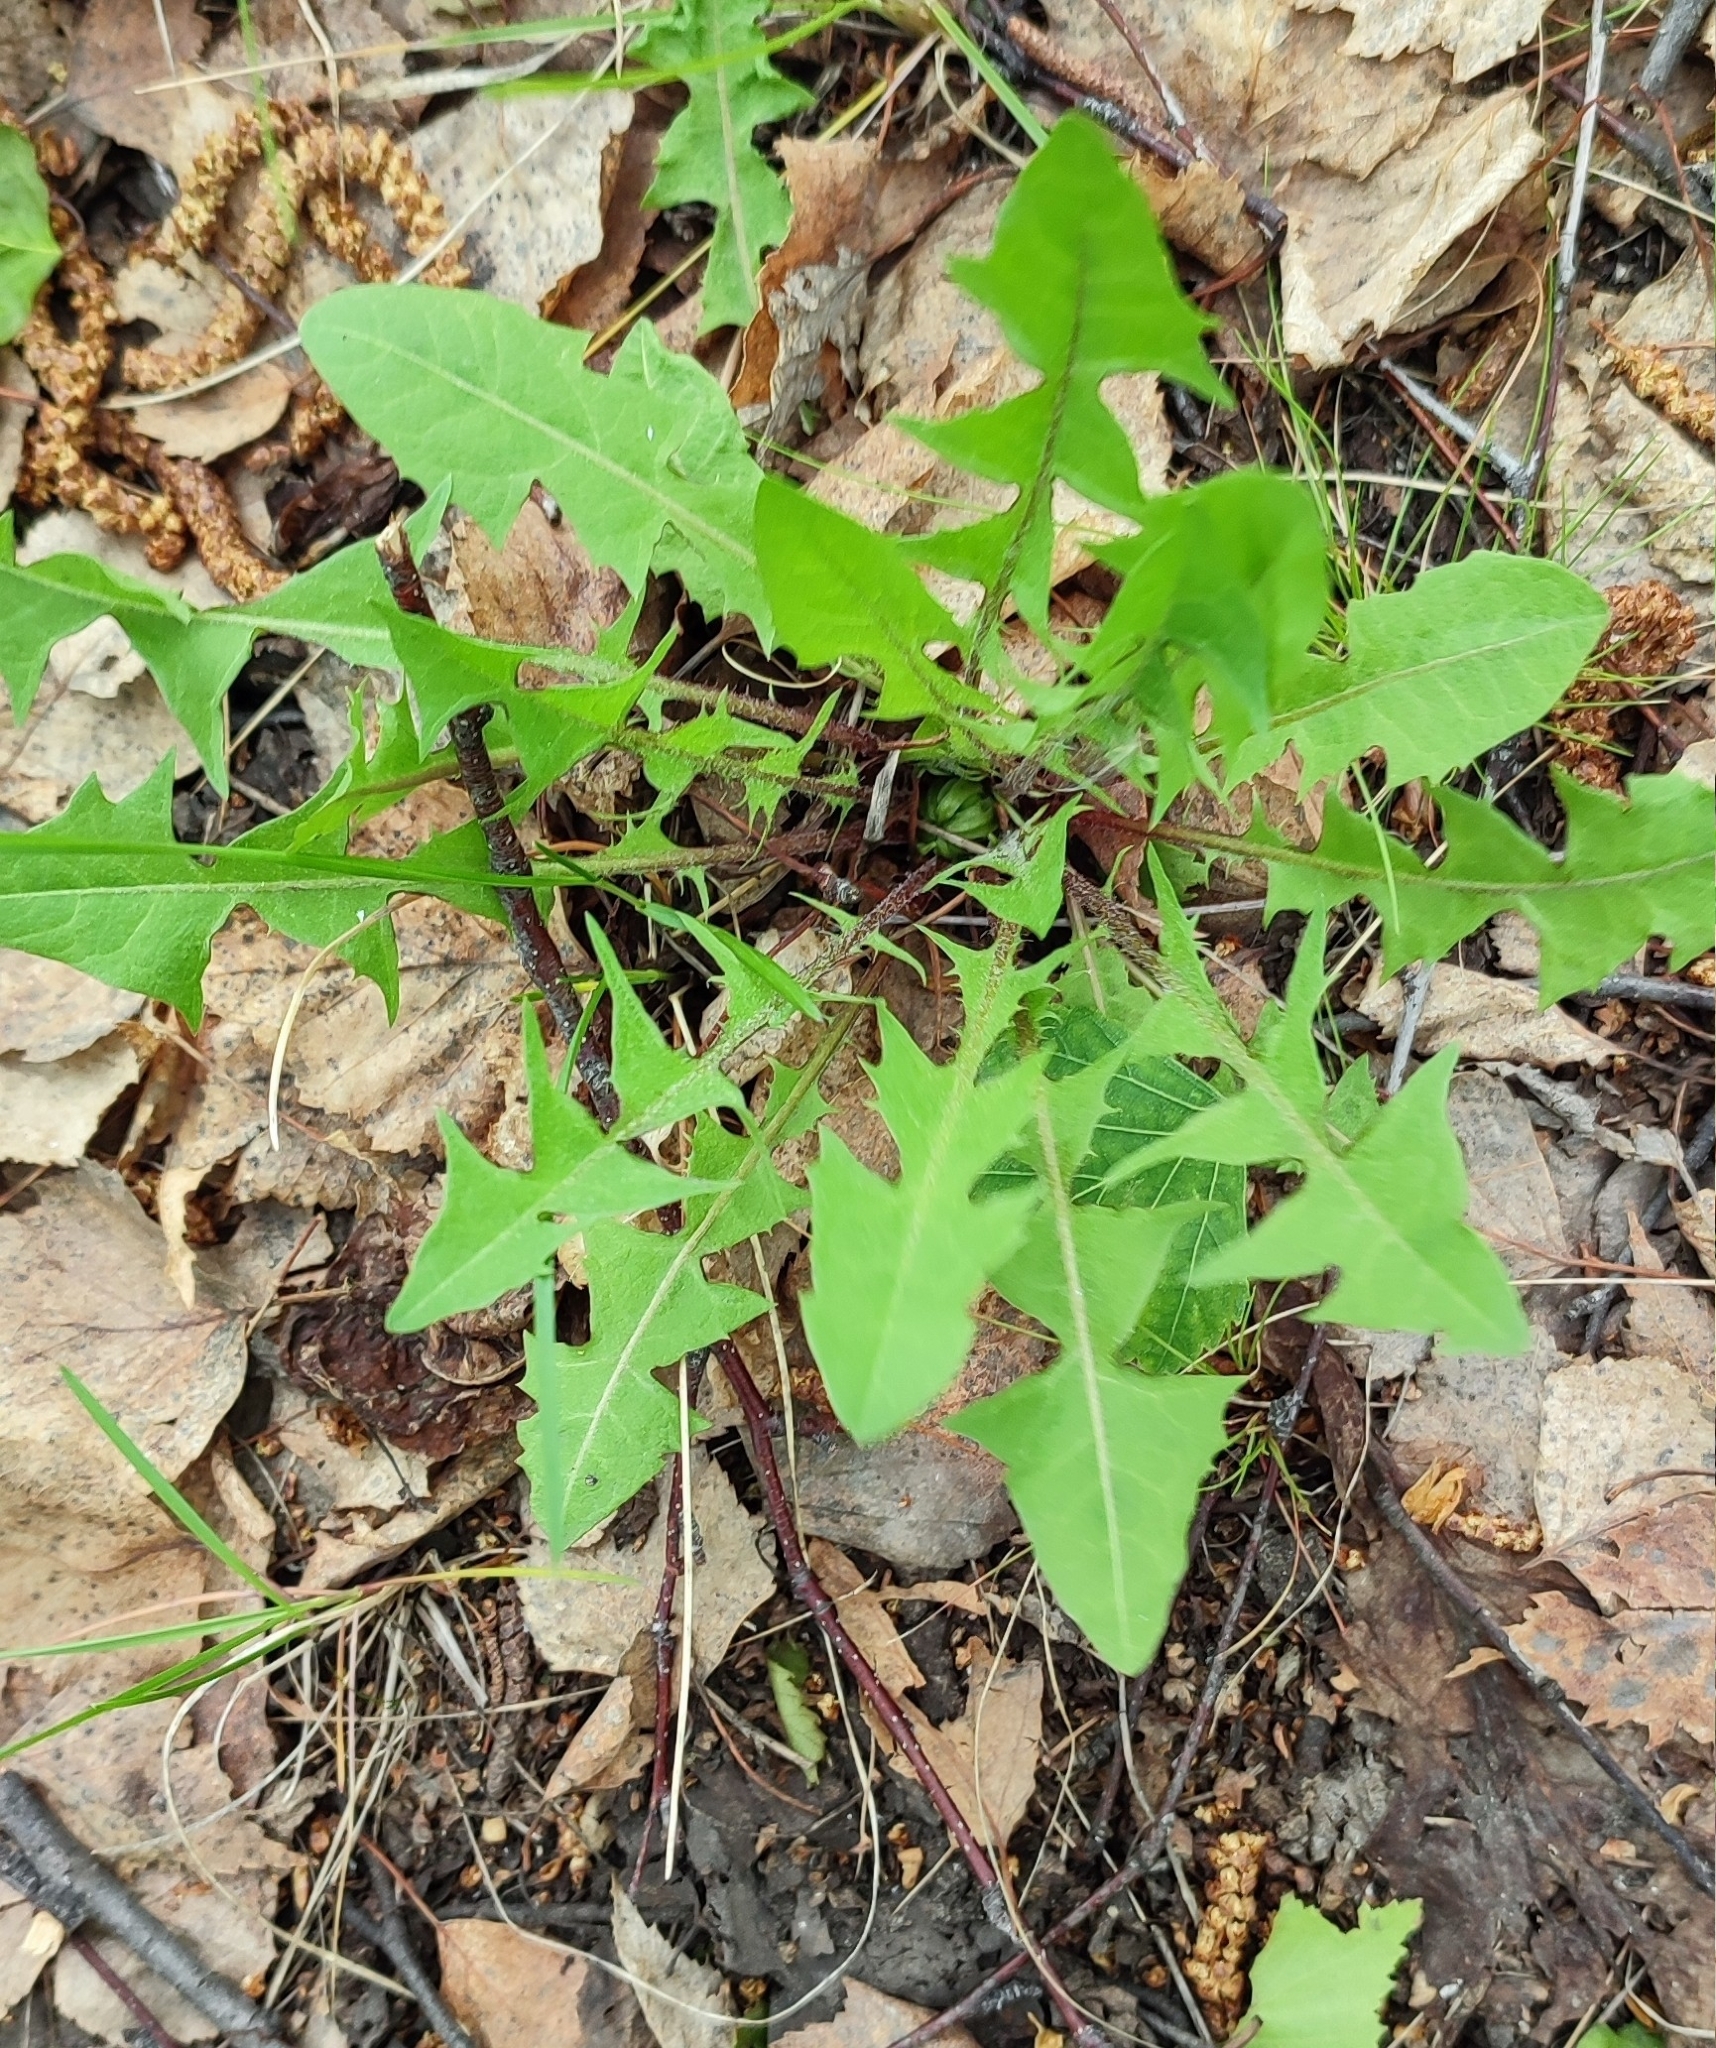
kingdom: Plantae
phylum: Tracheophyta
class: Magnoliopsida
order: Asterales
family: Asteraceae
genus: Taraxacum
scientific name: Taraxacum officinale
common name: Common dandelion
